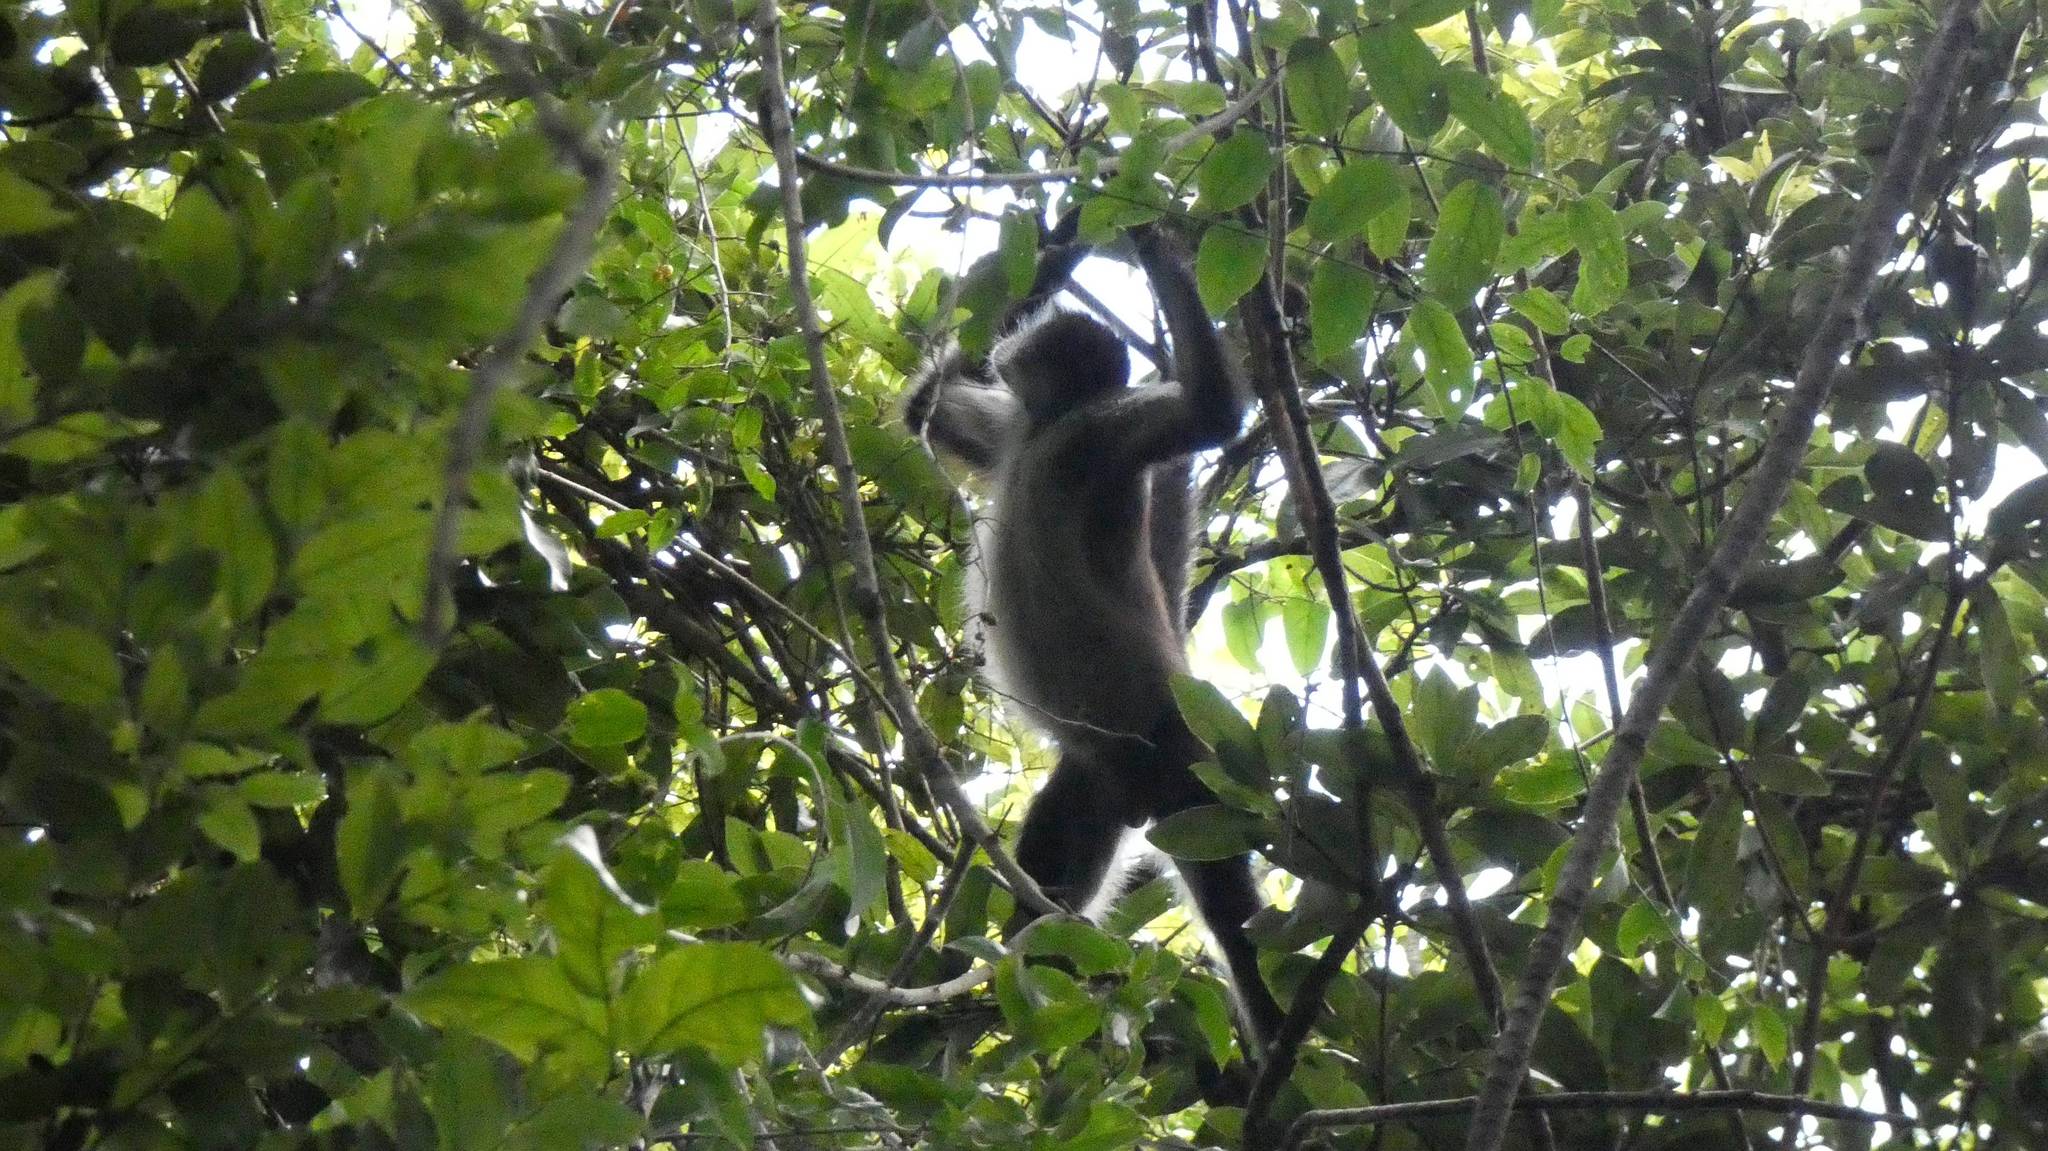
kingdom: Animalia
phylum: Chordata
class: Mammalia
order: Primates
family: Atelidae
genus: Ateles
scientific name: Ateles geoffroyi
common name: Black-handed spider monkey
